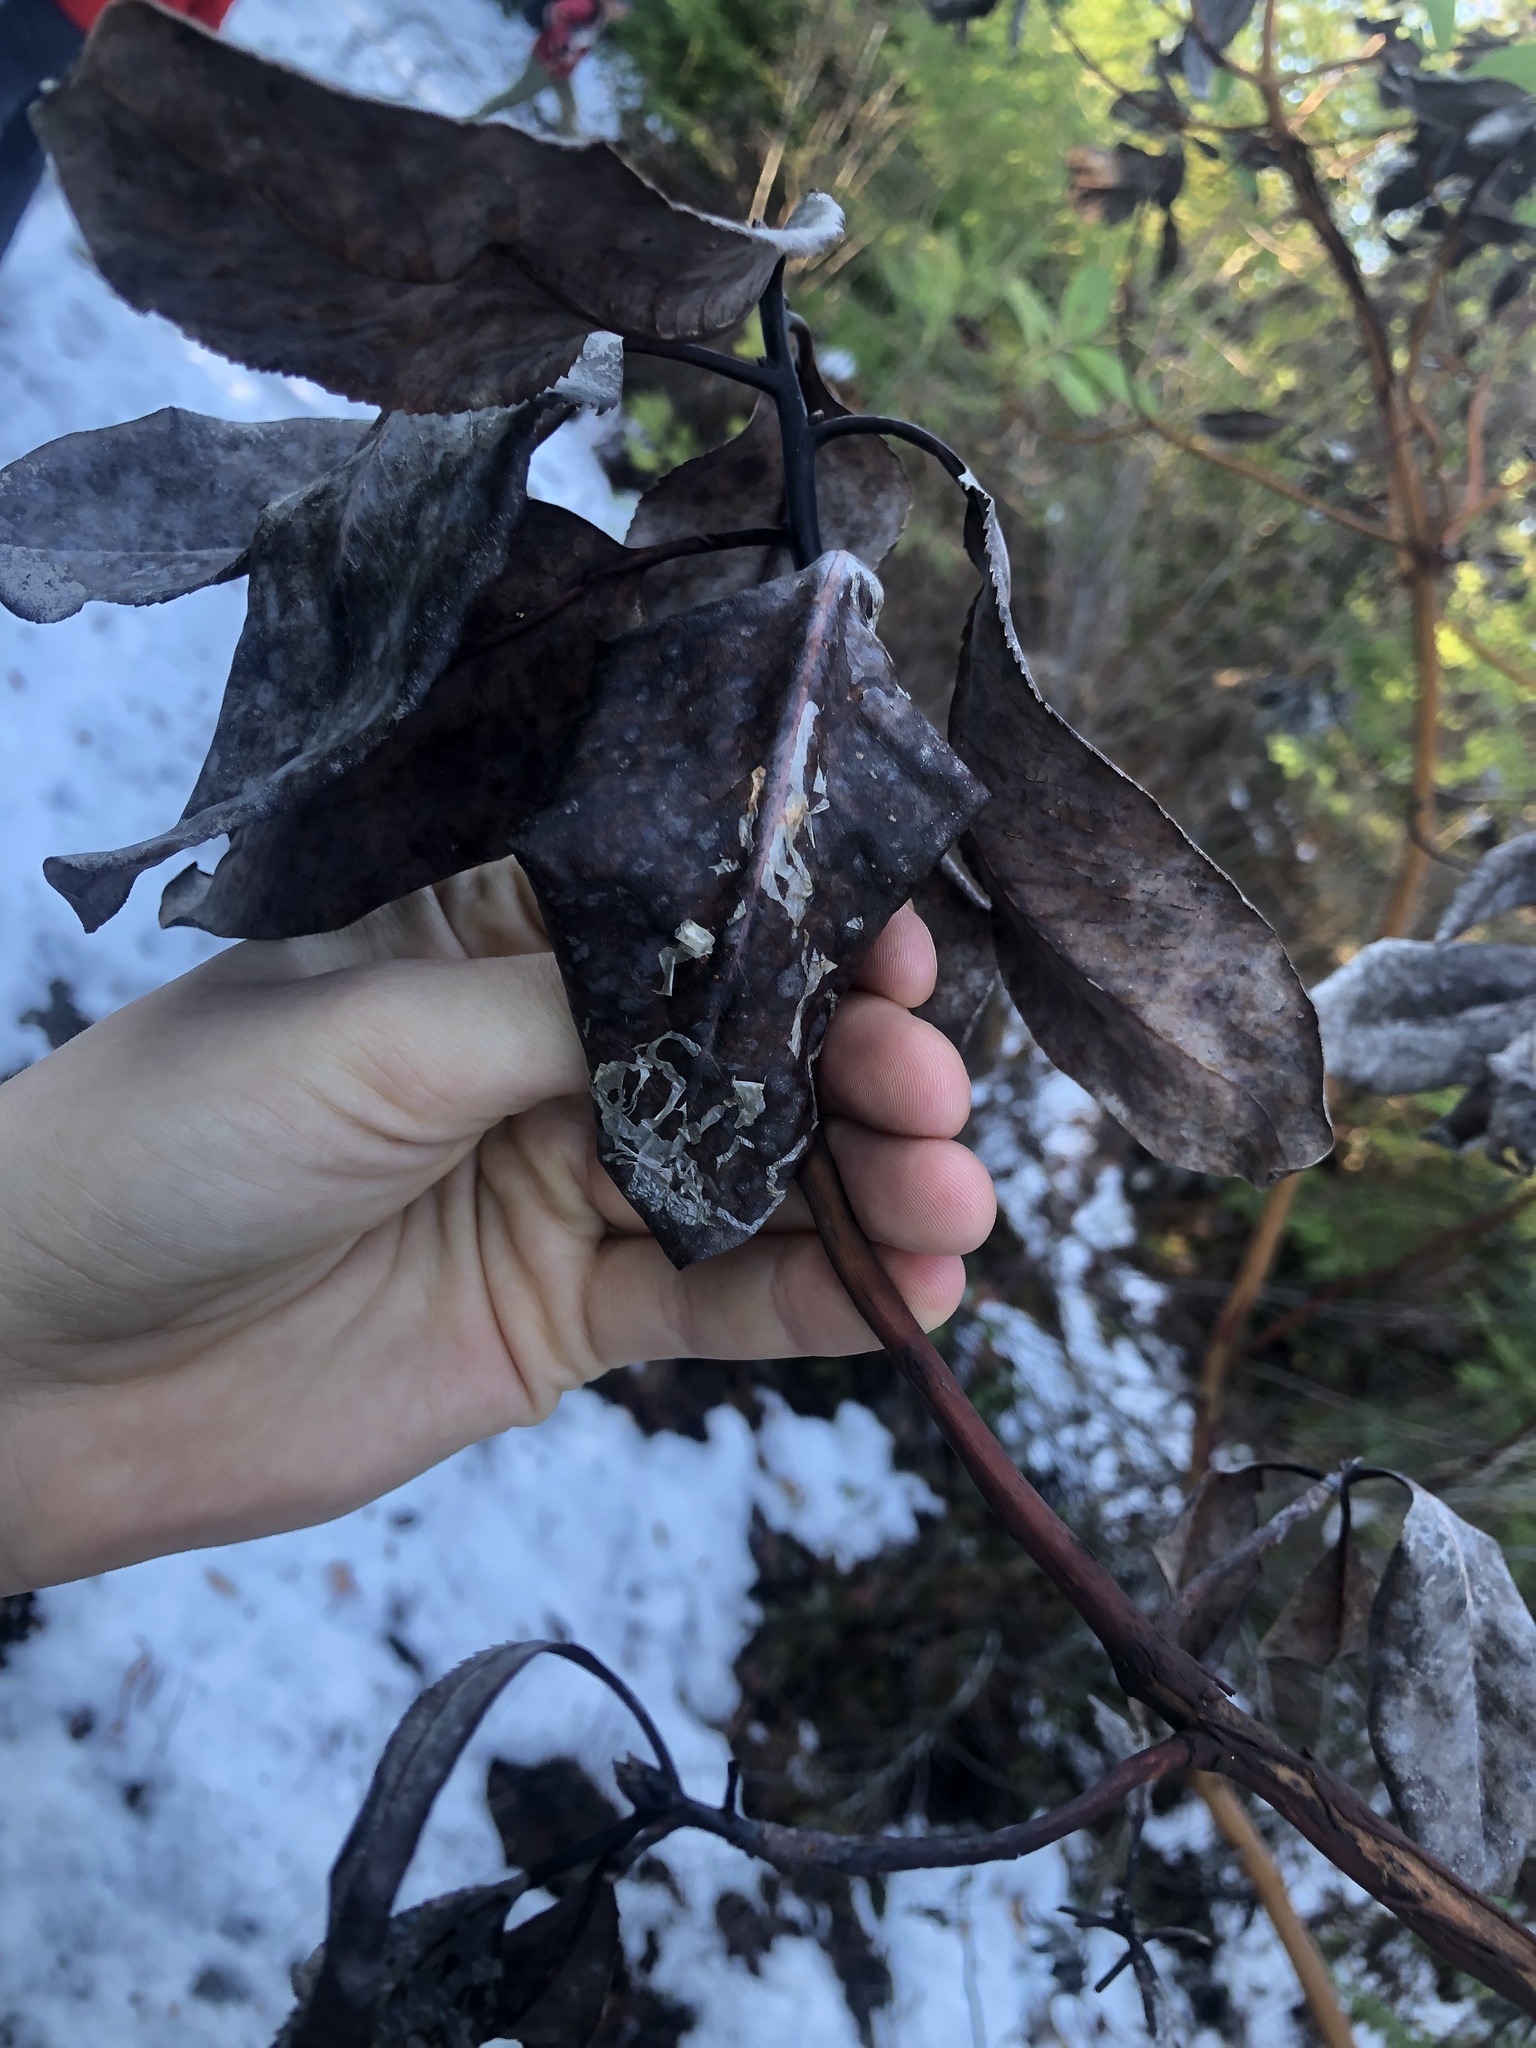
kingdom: Animalia
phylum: Arthropoda
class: Insecta
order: Lepidoptera
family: Gracillariidae
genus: Marmara
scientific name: Marmara arbutiella
